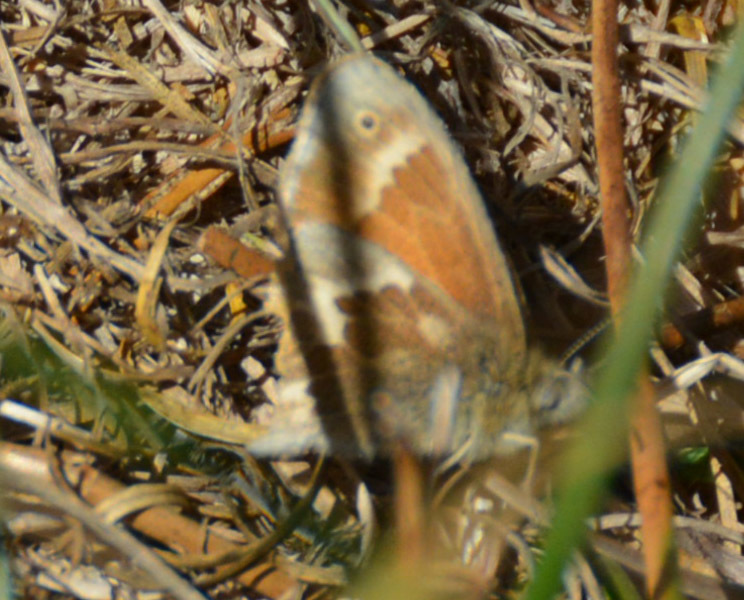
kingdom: Animalia
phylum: Arthropoda
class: Insecta
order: Lepidoptera
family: Nymphalidae
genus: Coenonympha
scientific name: Coenonympha california
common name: Common ringlet
